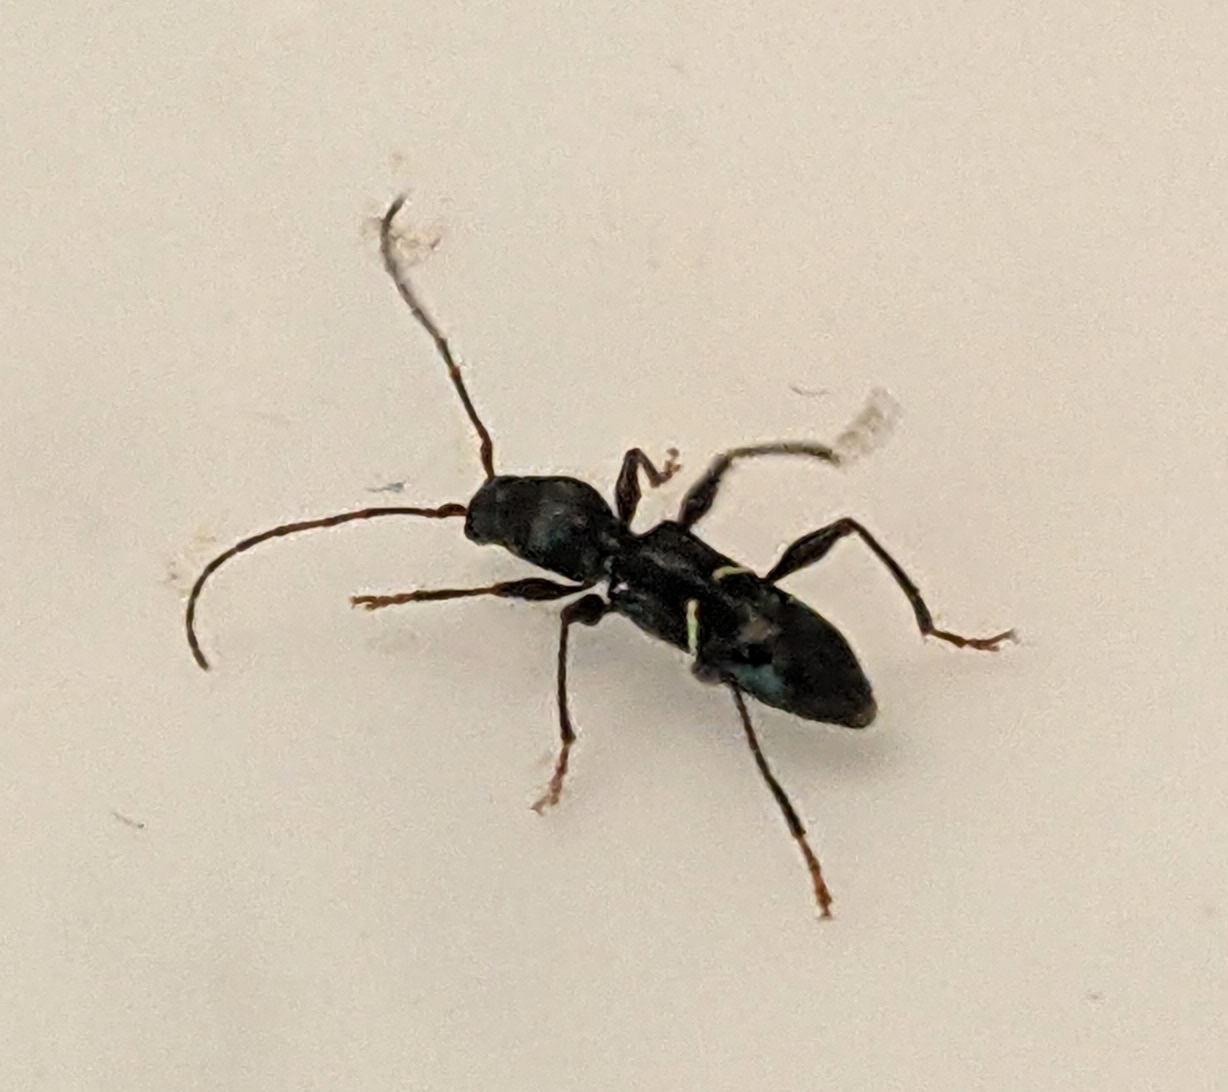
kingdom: Animalia
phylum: Arthropoda
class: Insecta
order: Coleoptera
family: Cerambycidae
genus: Euderces
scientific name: Euderces picipes
